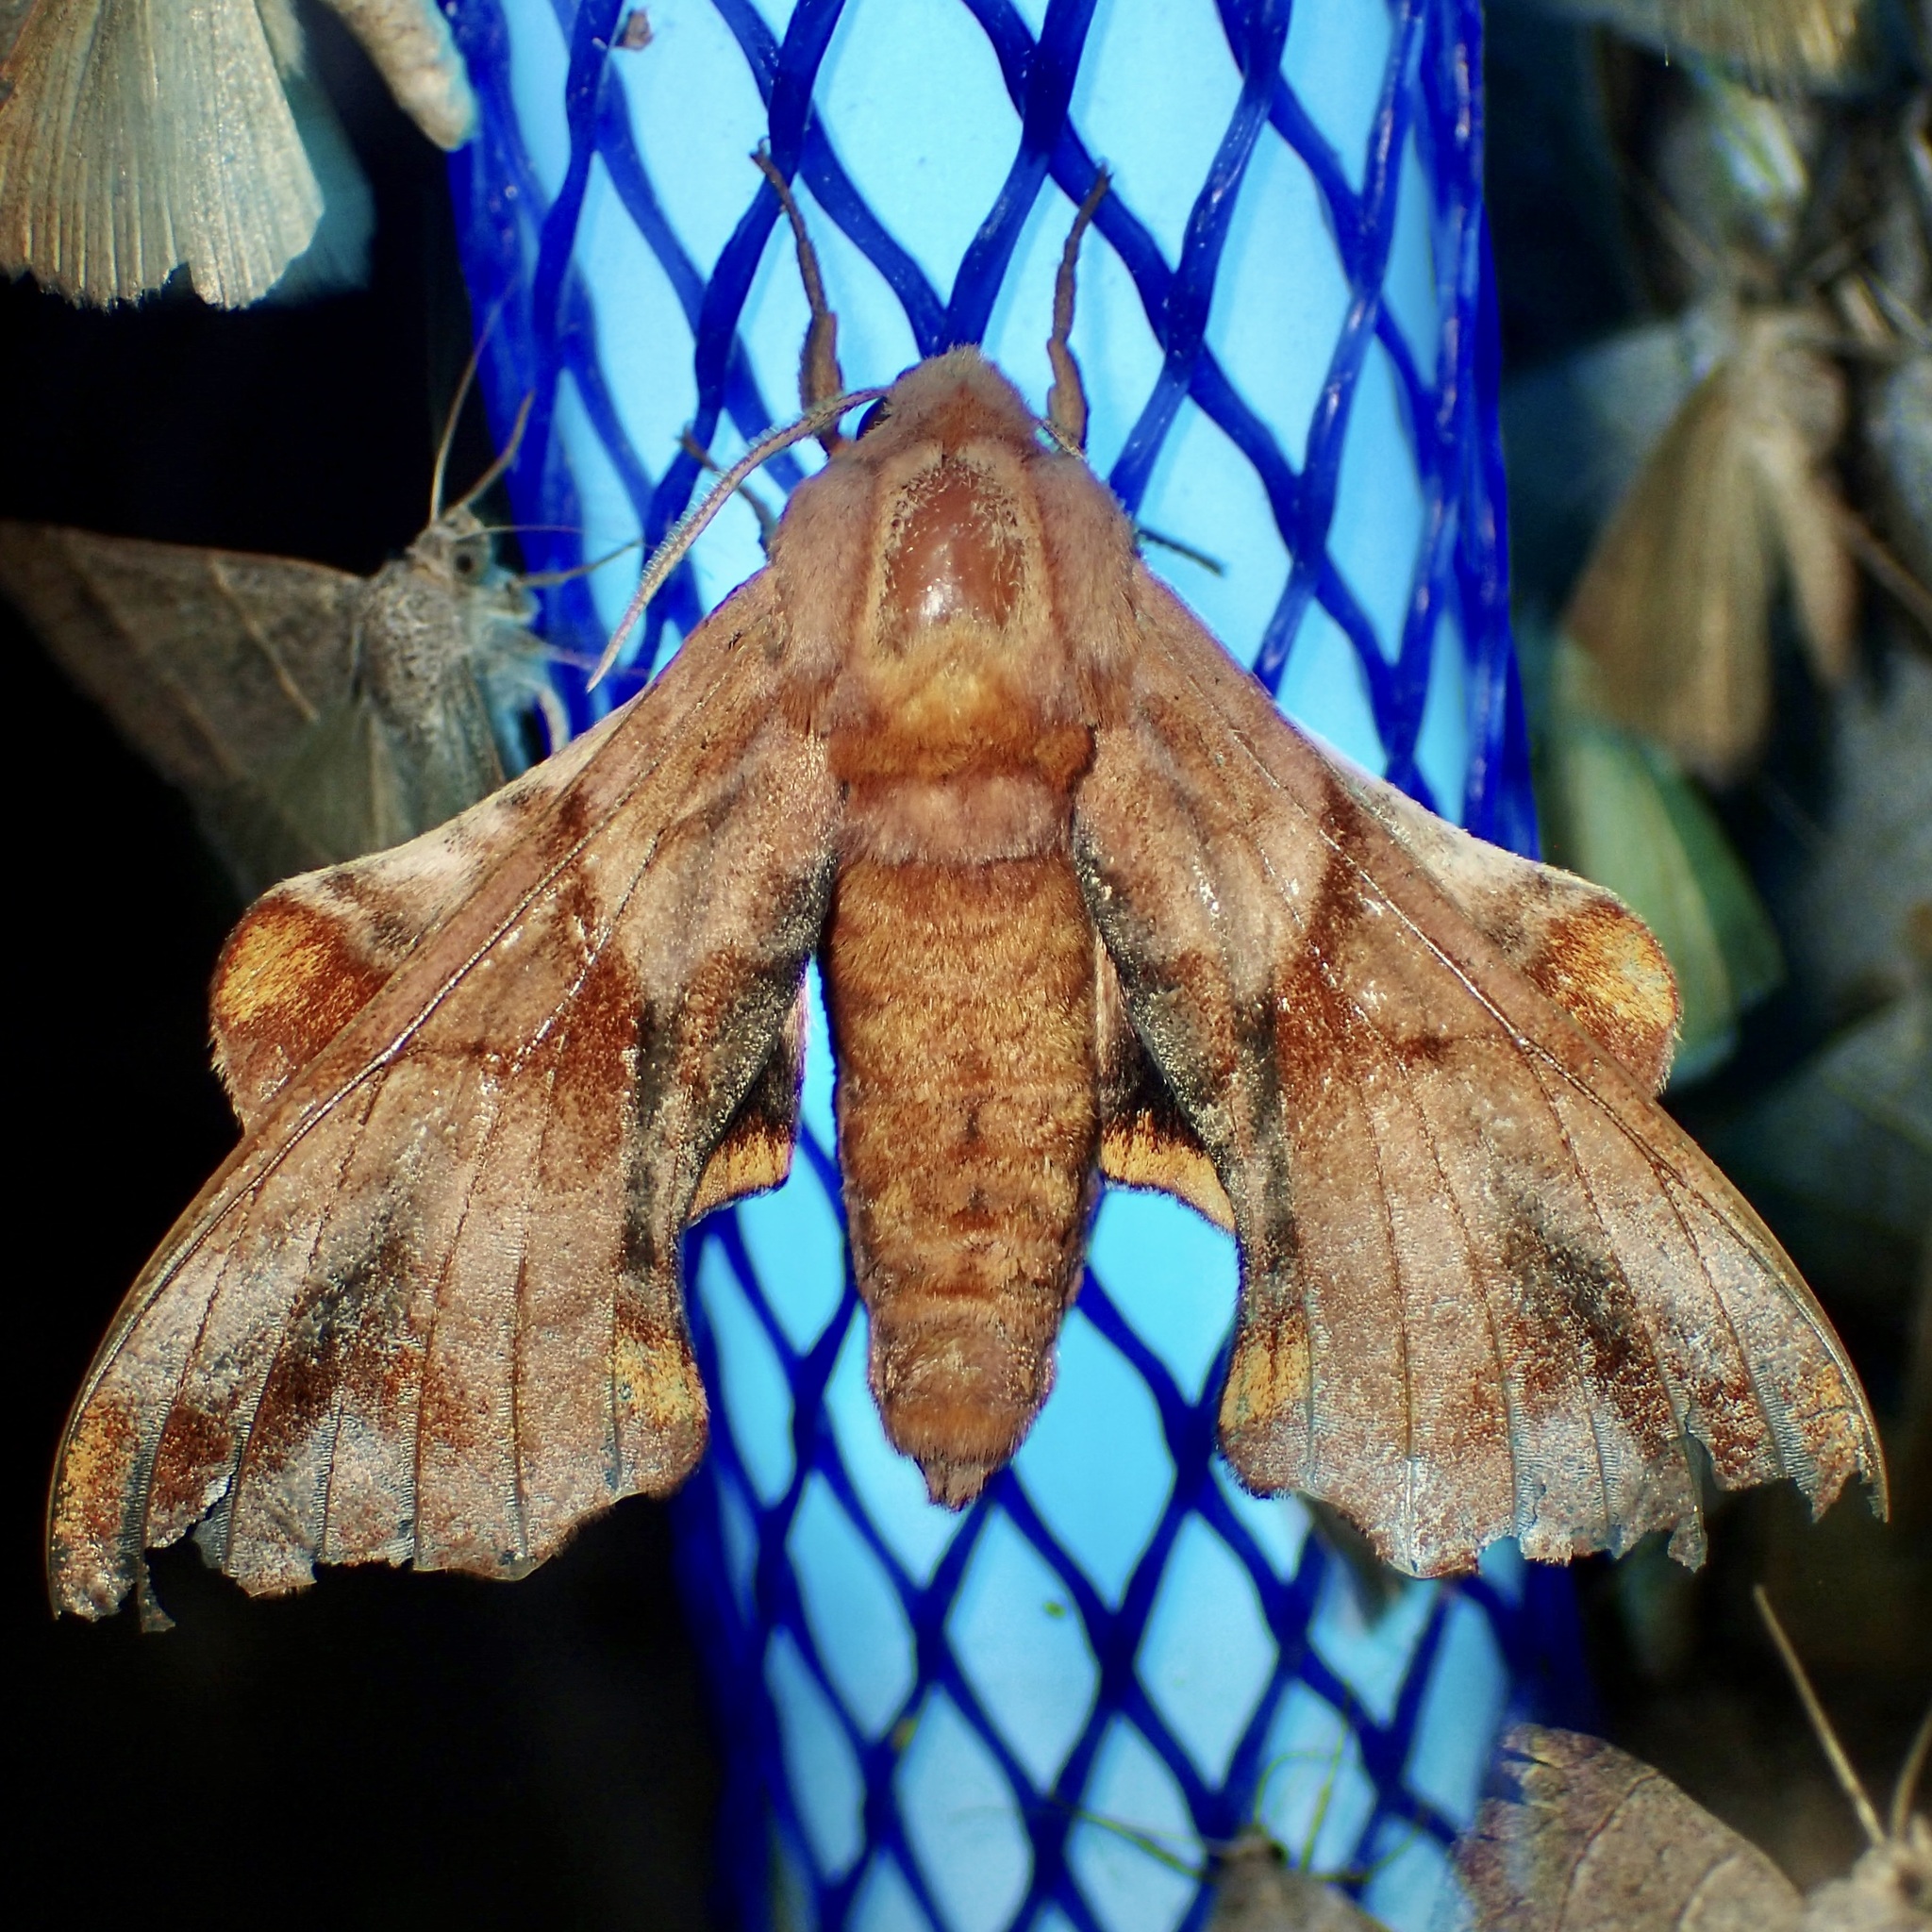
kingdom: Animalia
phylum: Arthropoda
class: Insecta
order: Lepidoptera
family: Sphingidae
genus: Paonias
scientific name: Paonias myops
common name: Small-eyed sphinx
